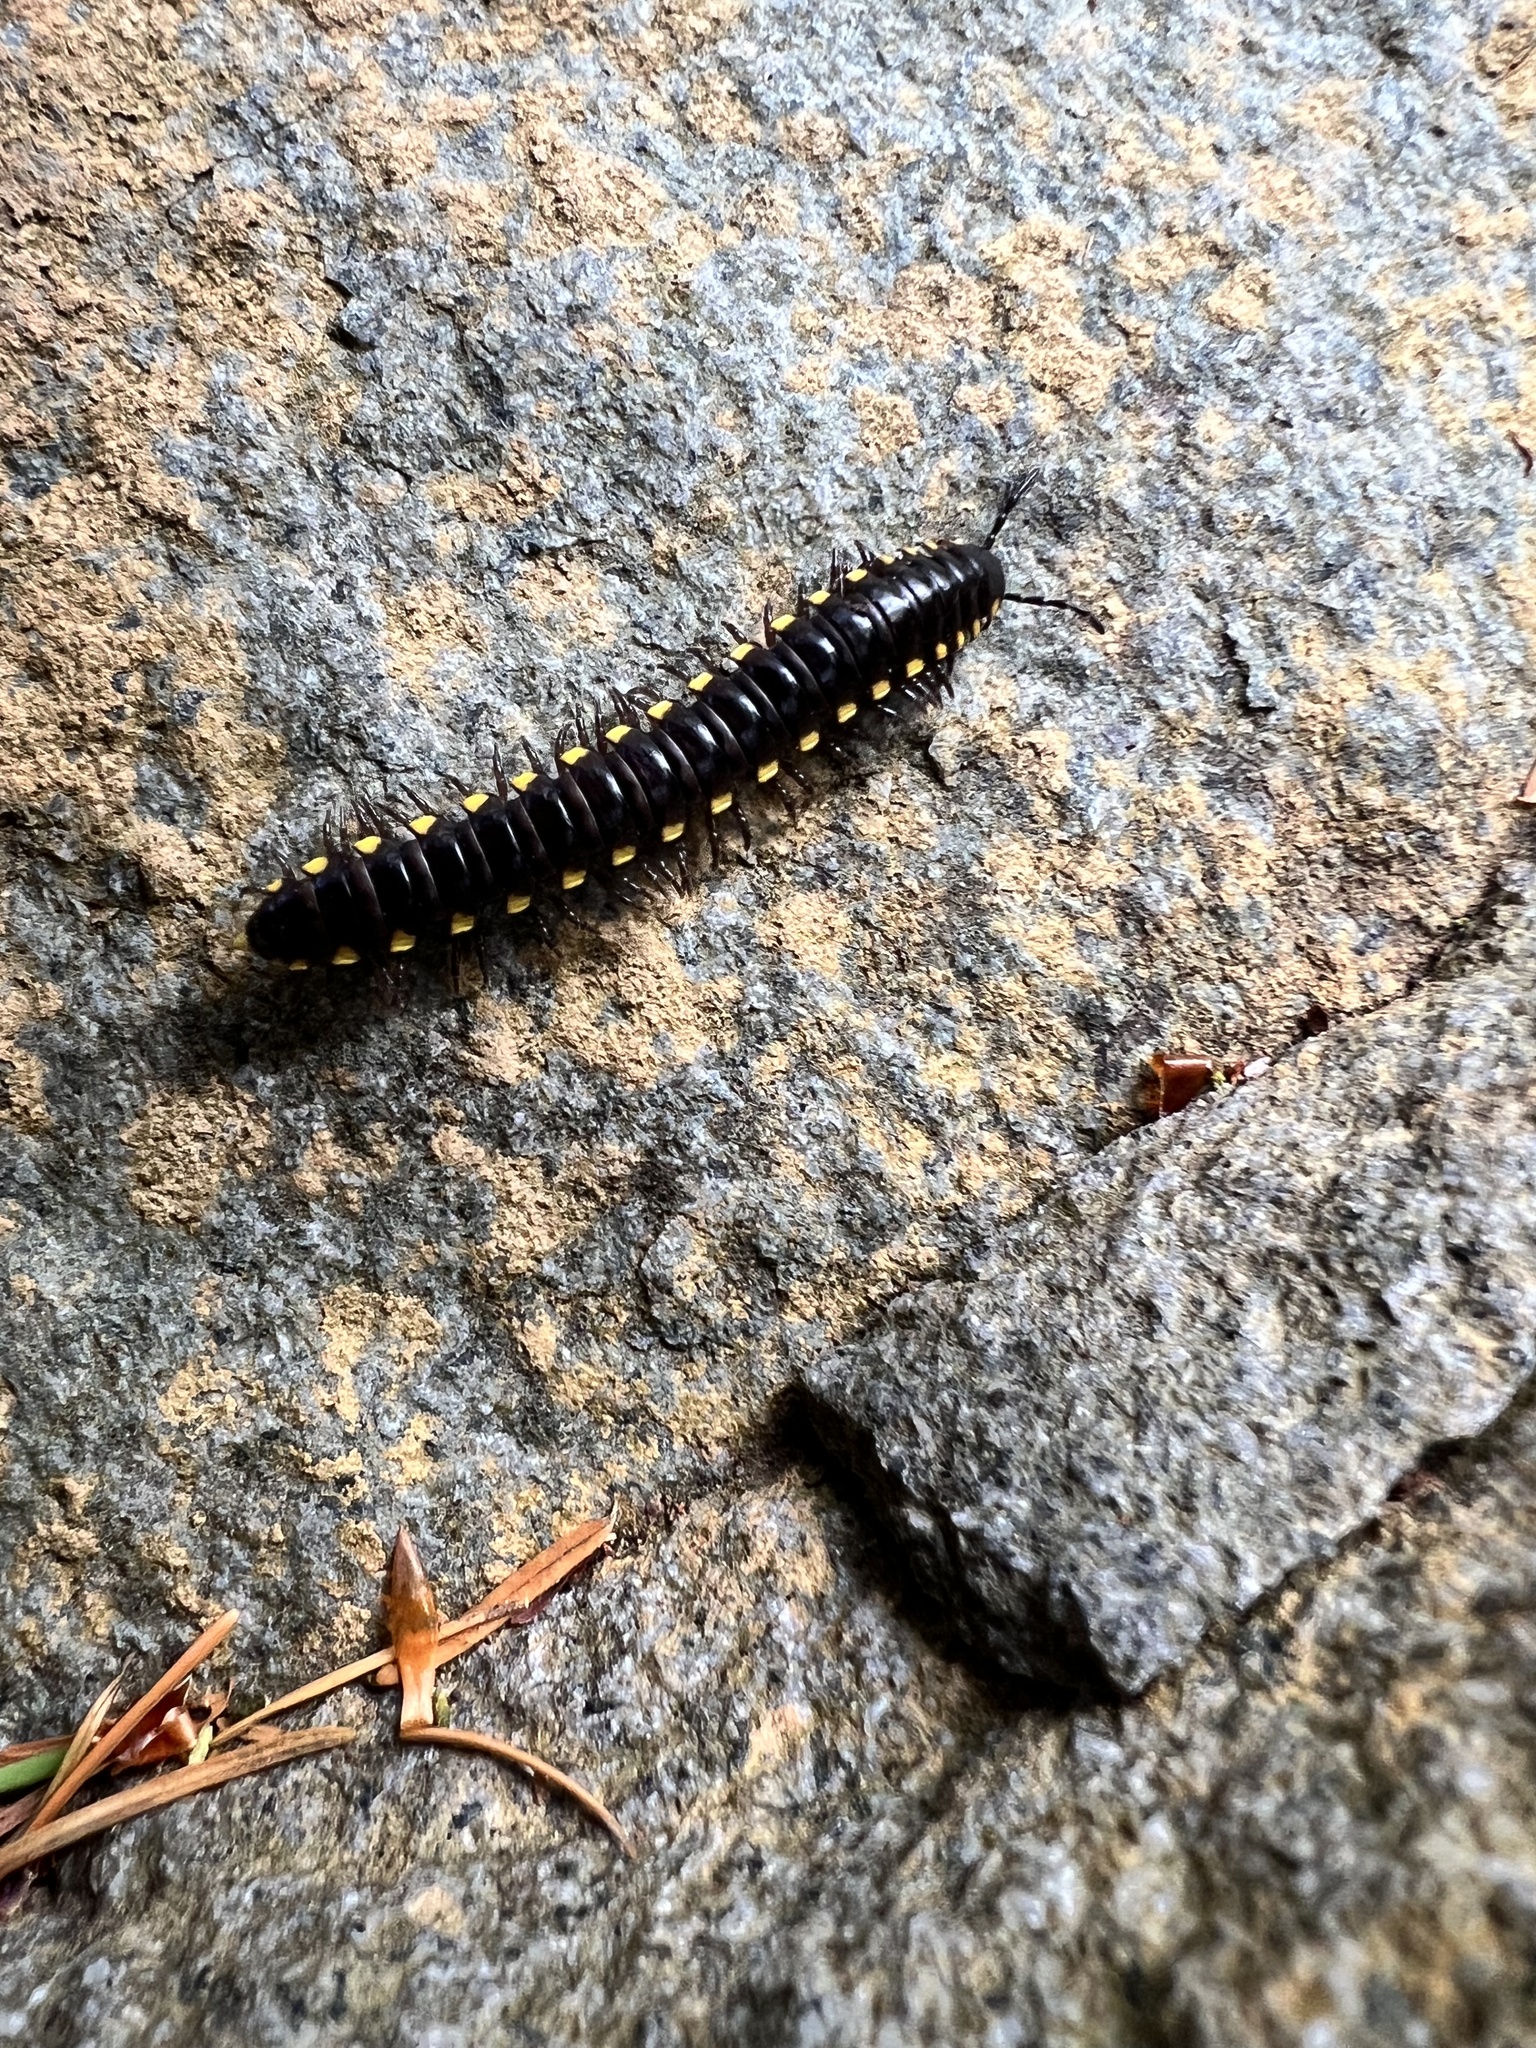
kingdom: Animalia
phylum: Arthropoda
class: Diplopoda
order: Polydesmida
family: Xystodesmidae
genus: Harpaphe
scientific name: Harpaphe haydeniana
